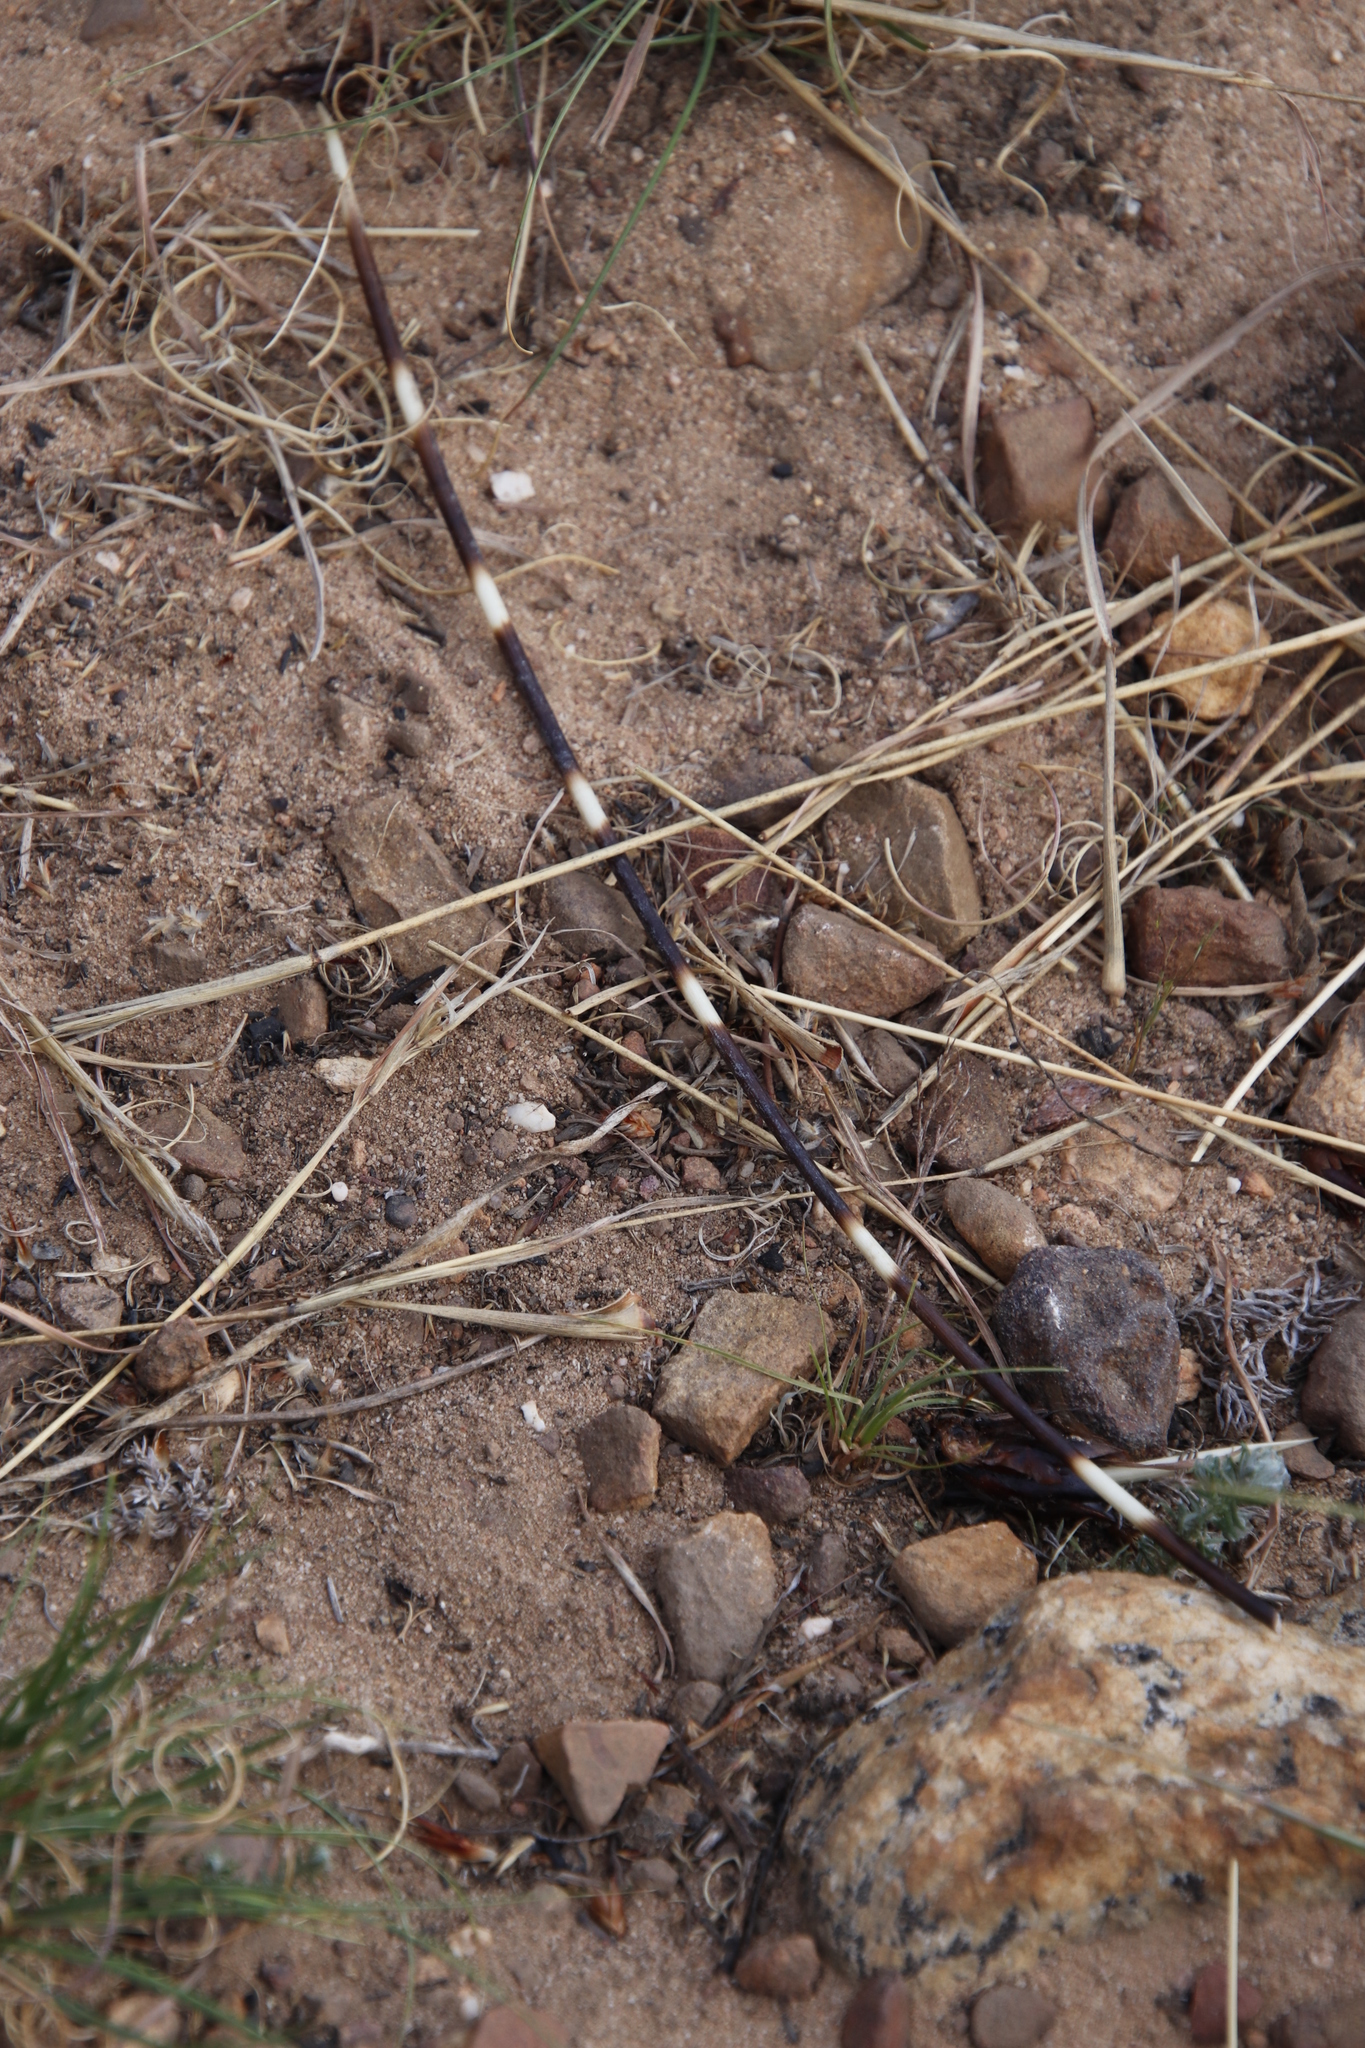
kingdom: Animalia
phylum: Chordata
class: Mammalia
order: Rodentia
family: Hystricidae
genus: Hystrix
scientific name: Hystrix africaeaustralis
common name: Cape porcupine
